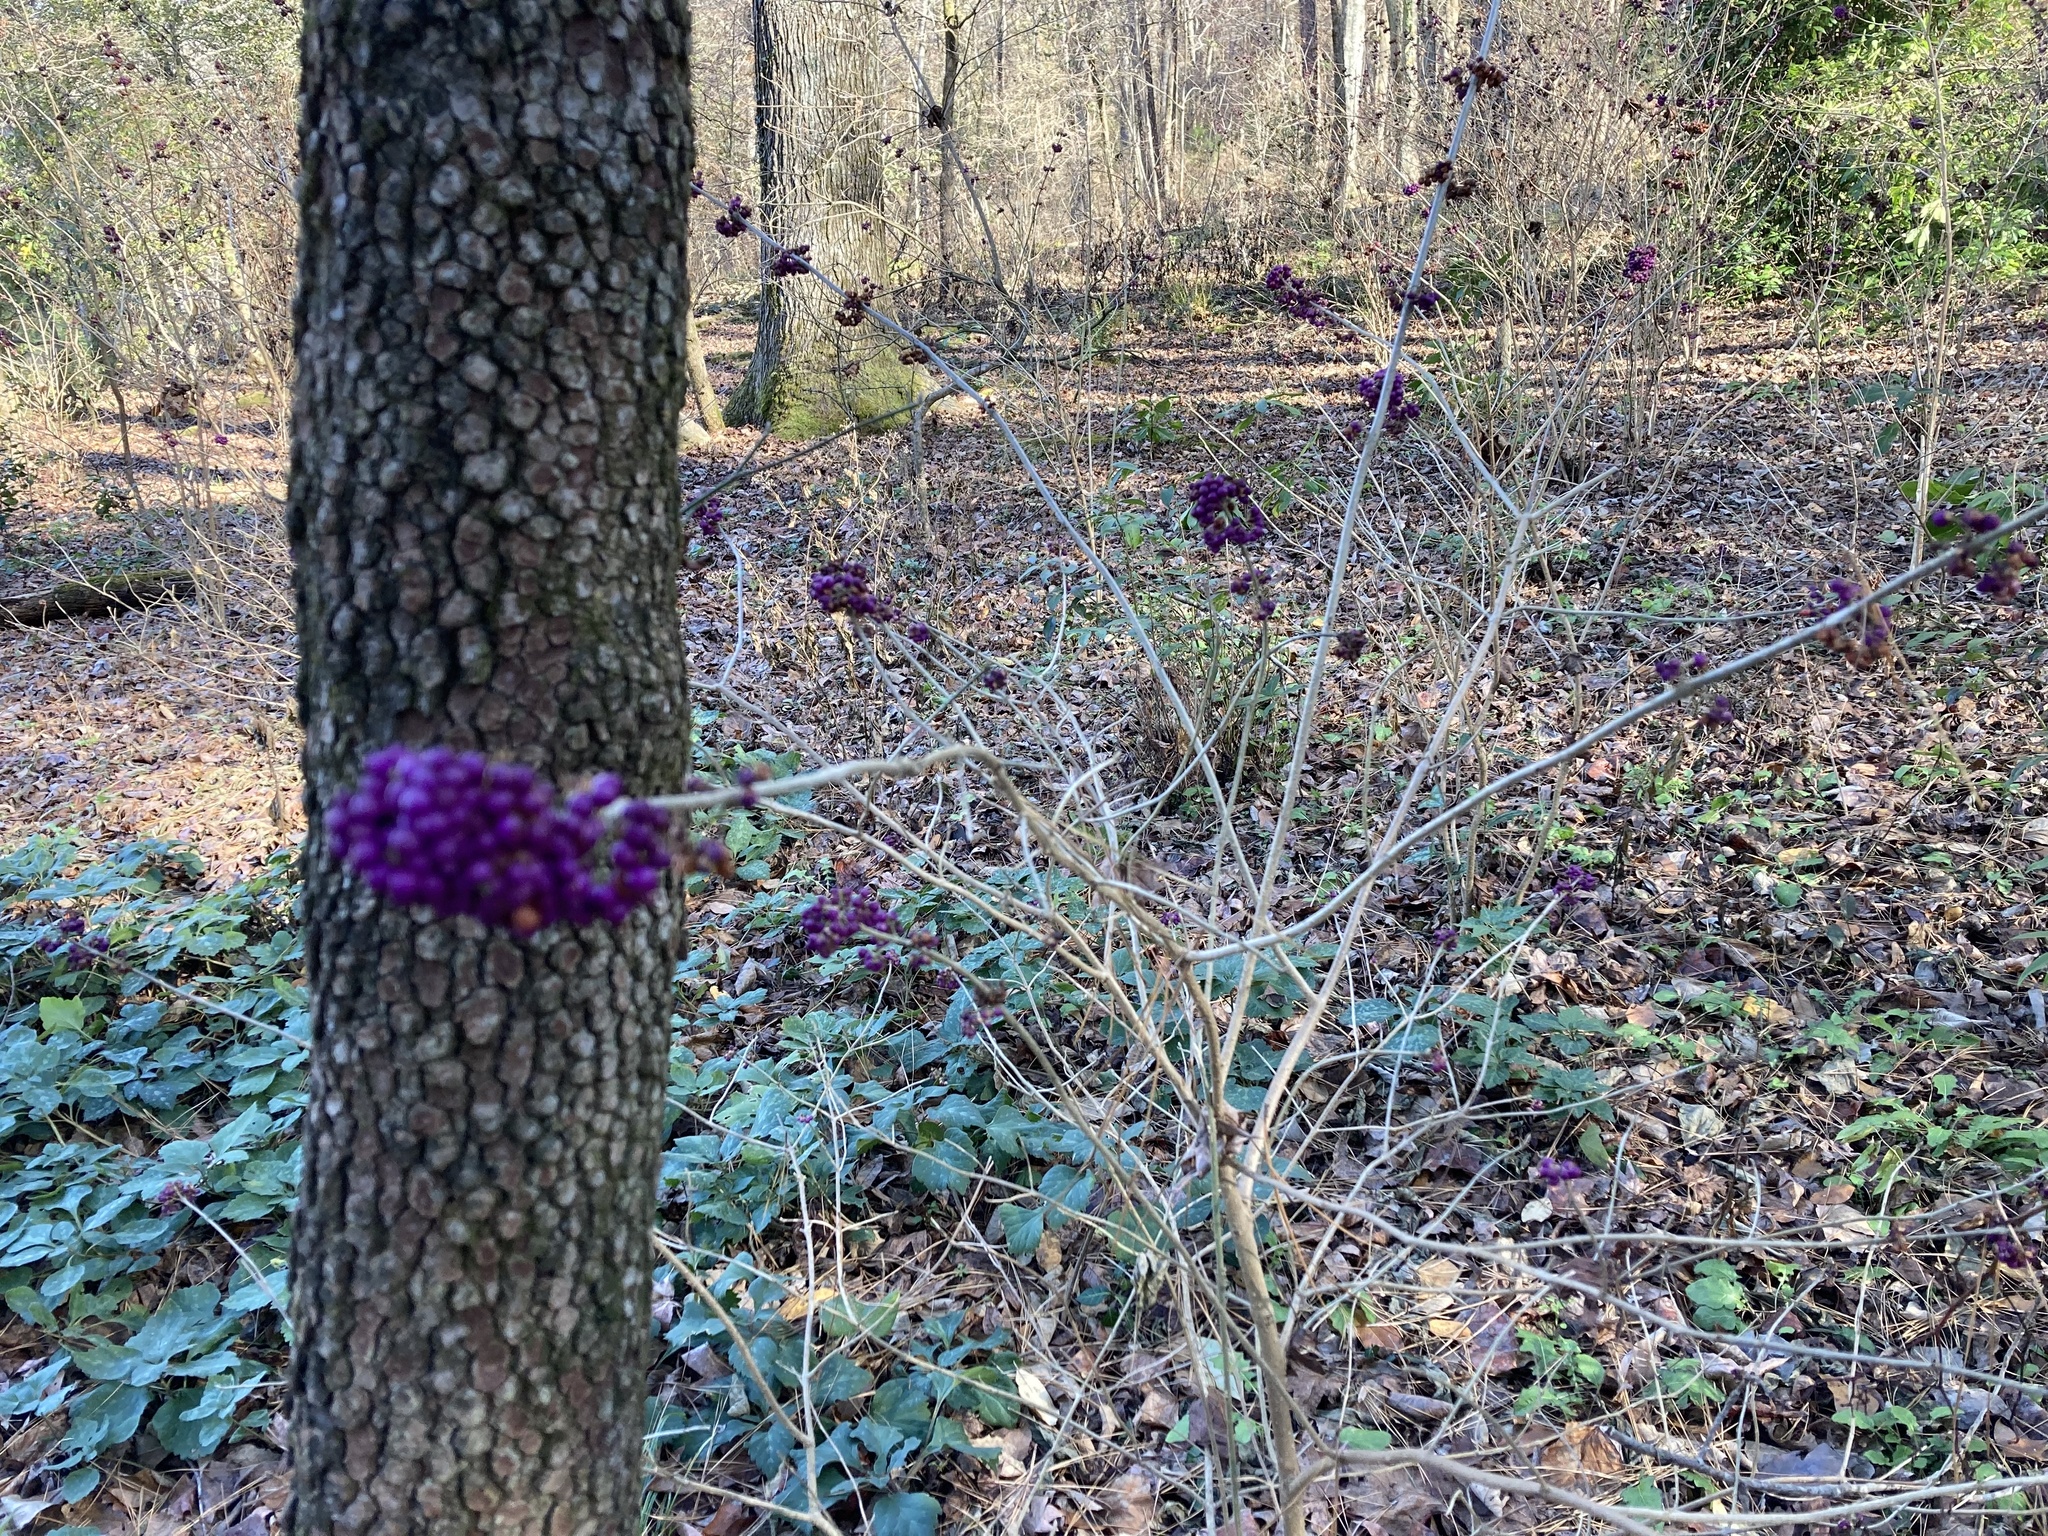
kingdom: Plantae
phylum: Tracheophyta
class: Magnoliopsida
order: Lamiales
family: Lamiaceae
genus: Callicarpa
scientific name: Callicarpa americana
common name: American beautyberry
